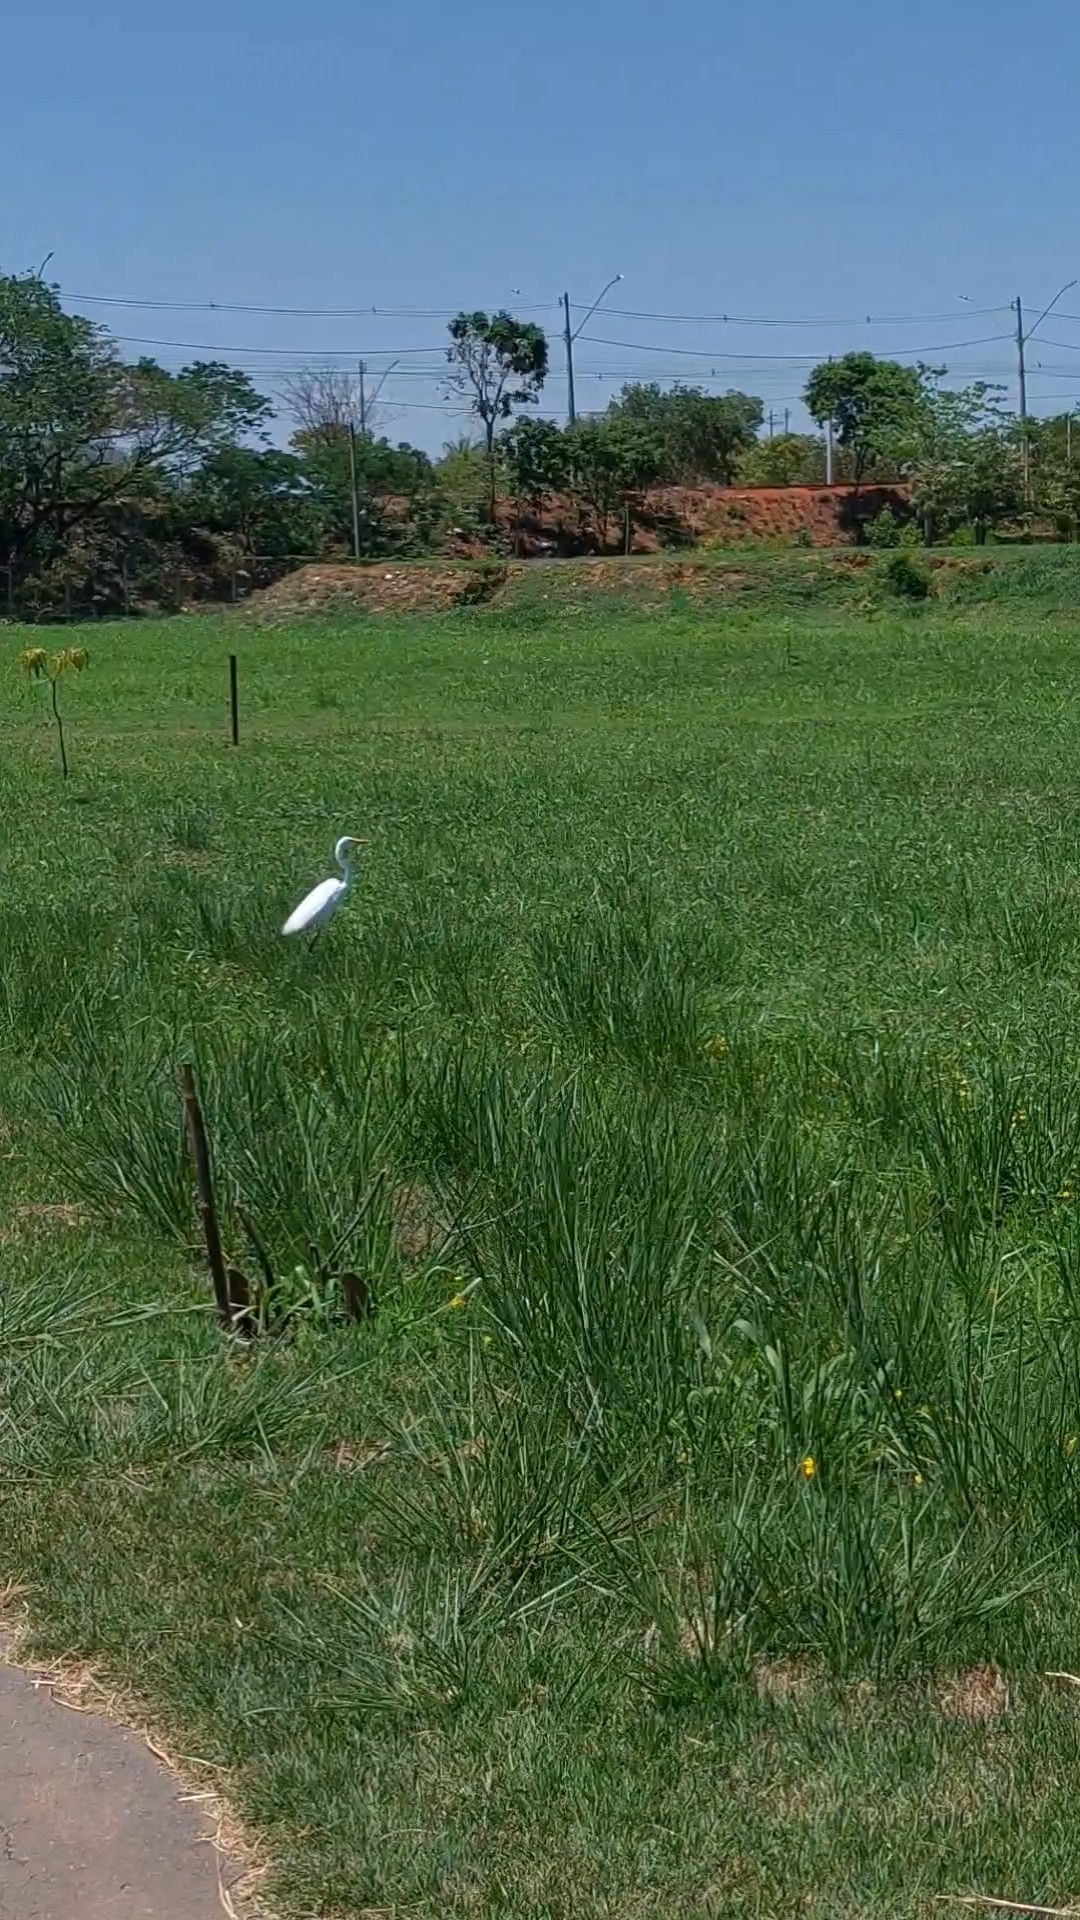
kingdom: Animalia
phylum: Chordata
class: Aves
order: Pelecaniformes
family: Ardeidae
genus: Ardea
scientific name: Ardea alba
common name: Great egret
